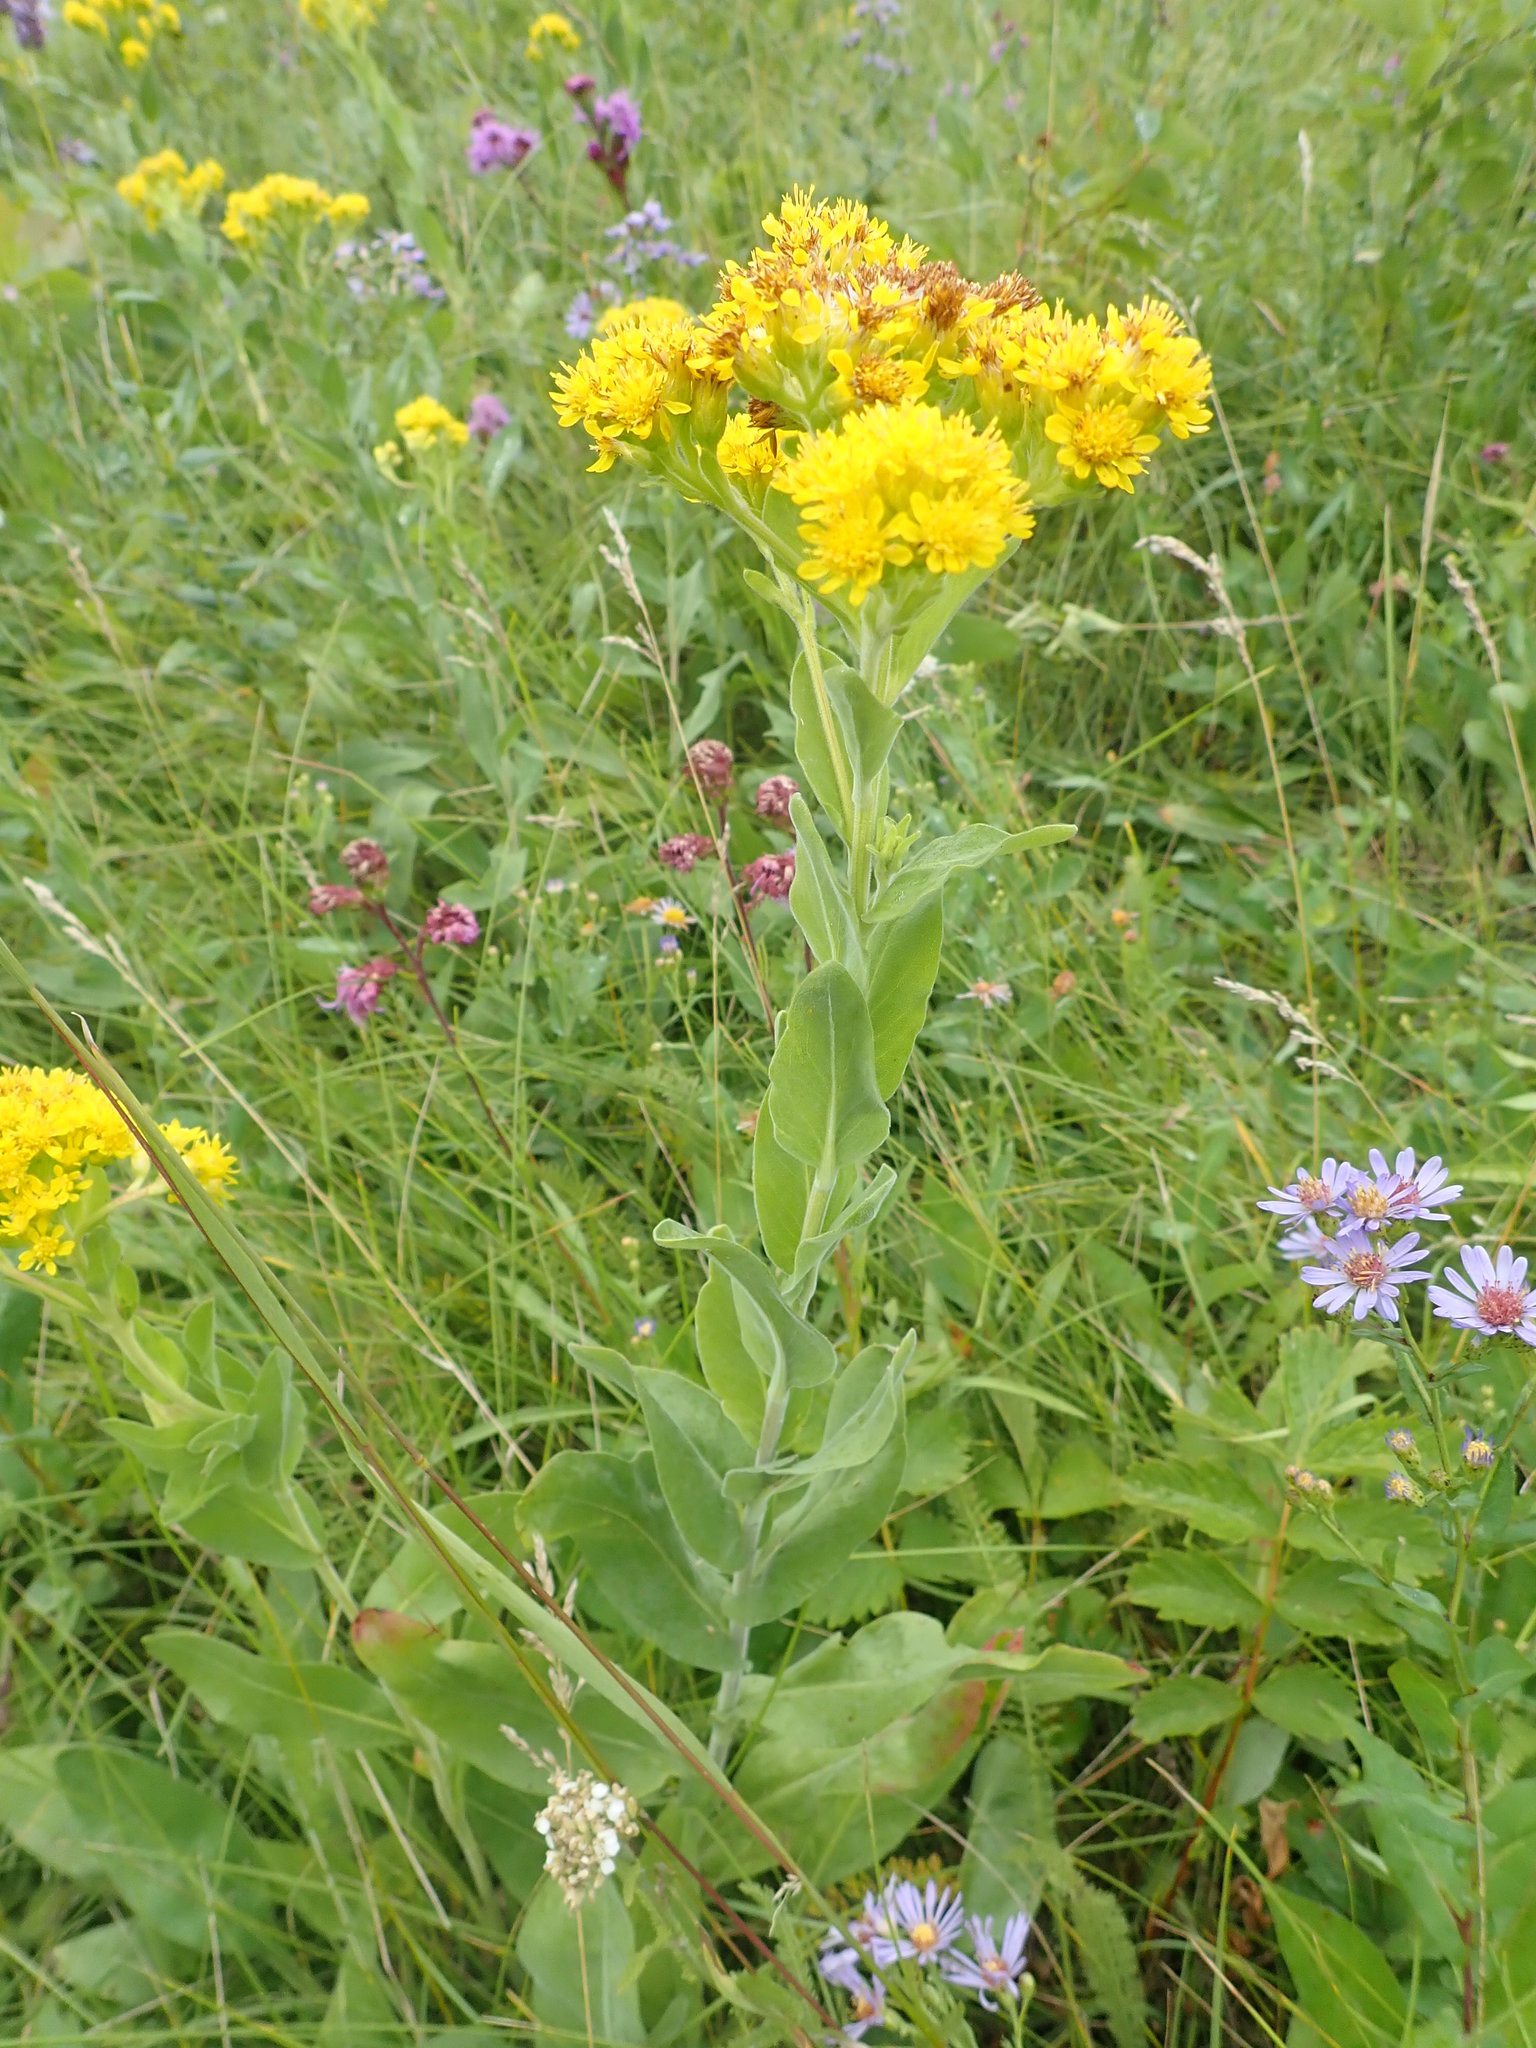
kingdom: Plantae
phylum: Tracheophyta
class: Magnoliopsida
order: Asterales
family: Asteraceae
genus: Solidago
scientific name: Solidago rigida
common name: Rigid goldenrod
